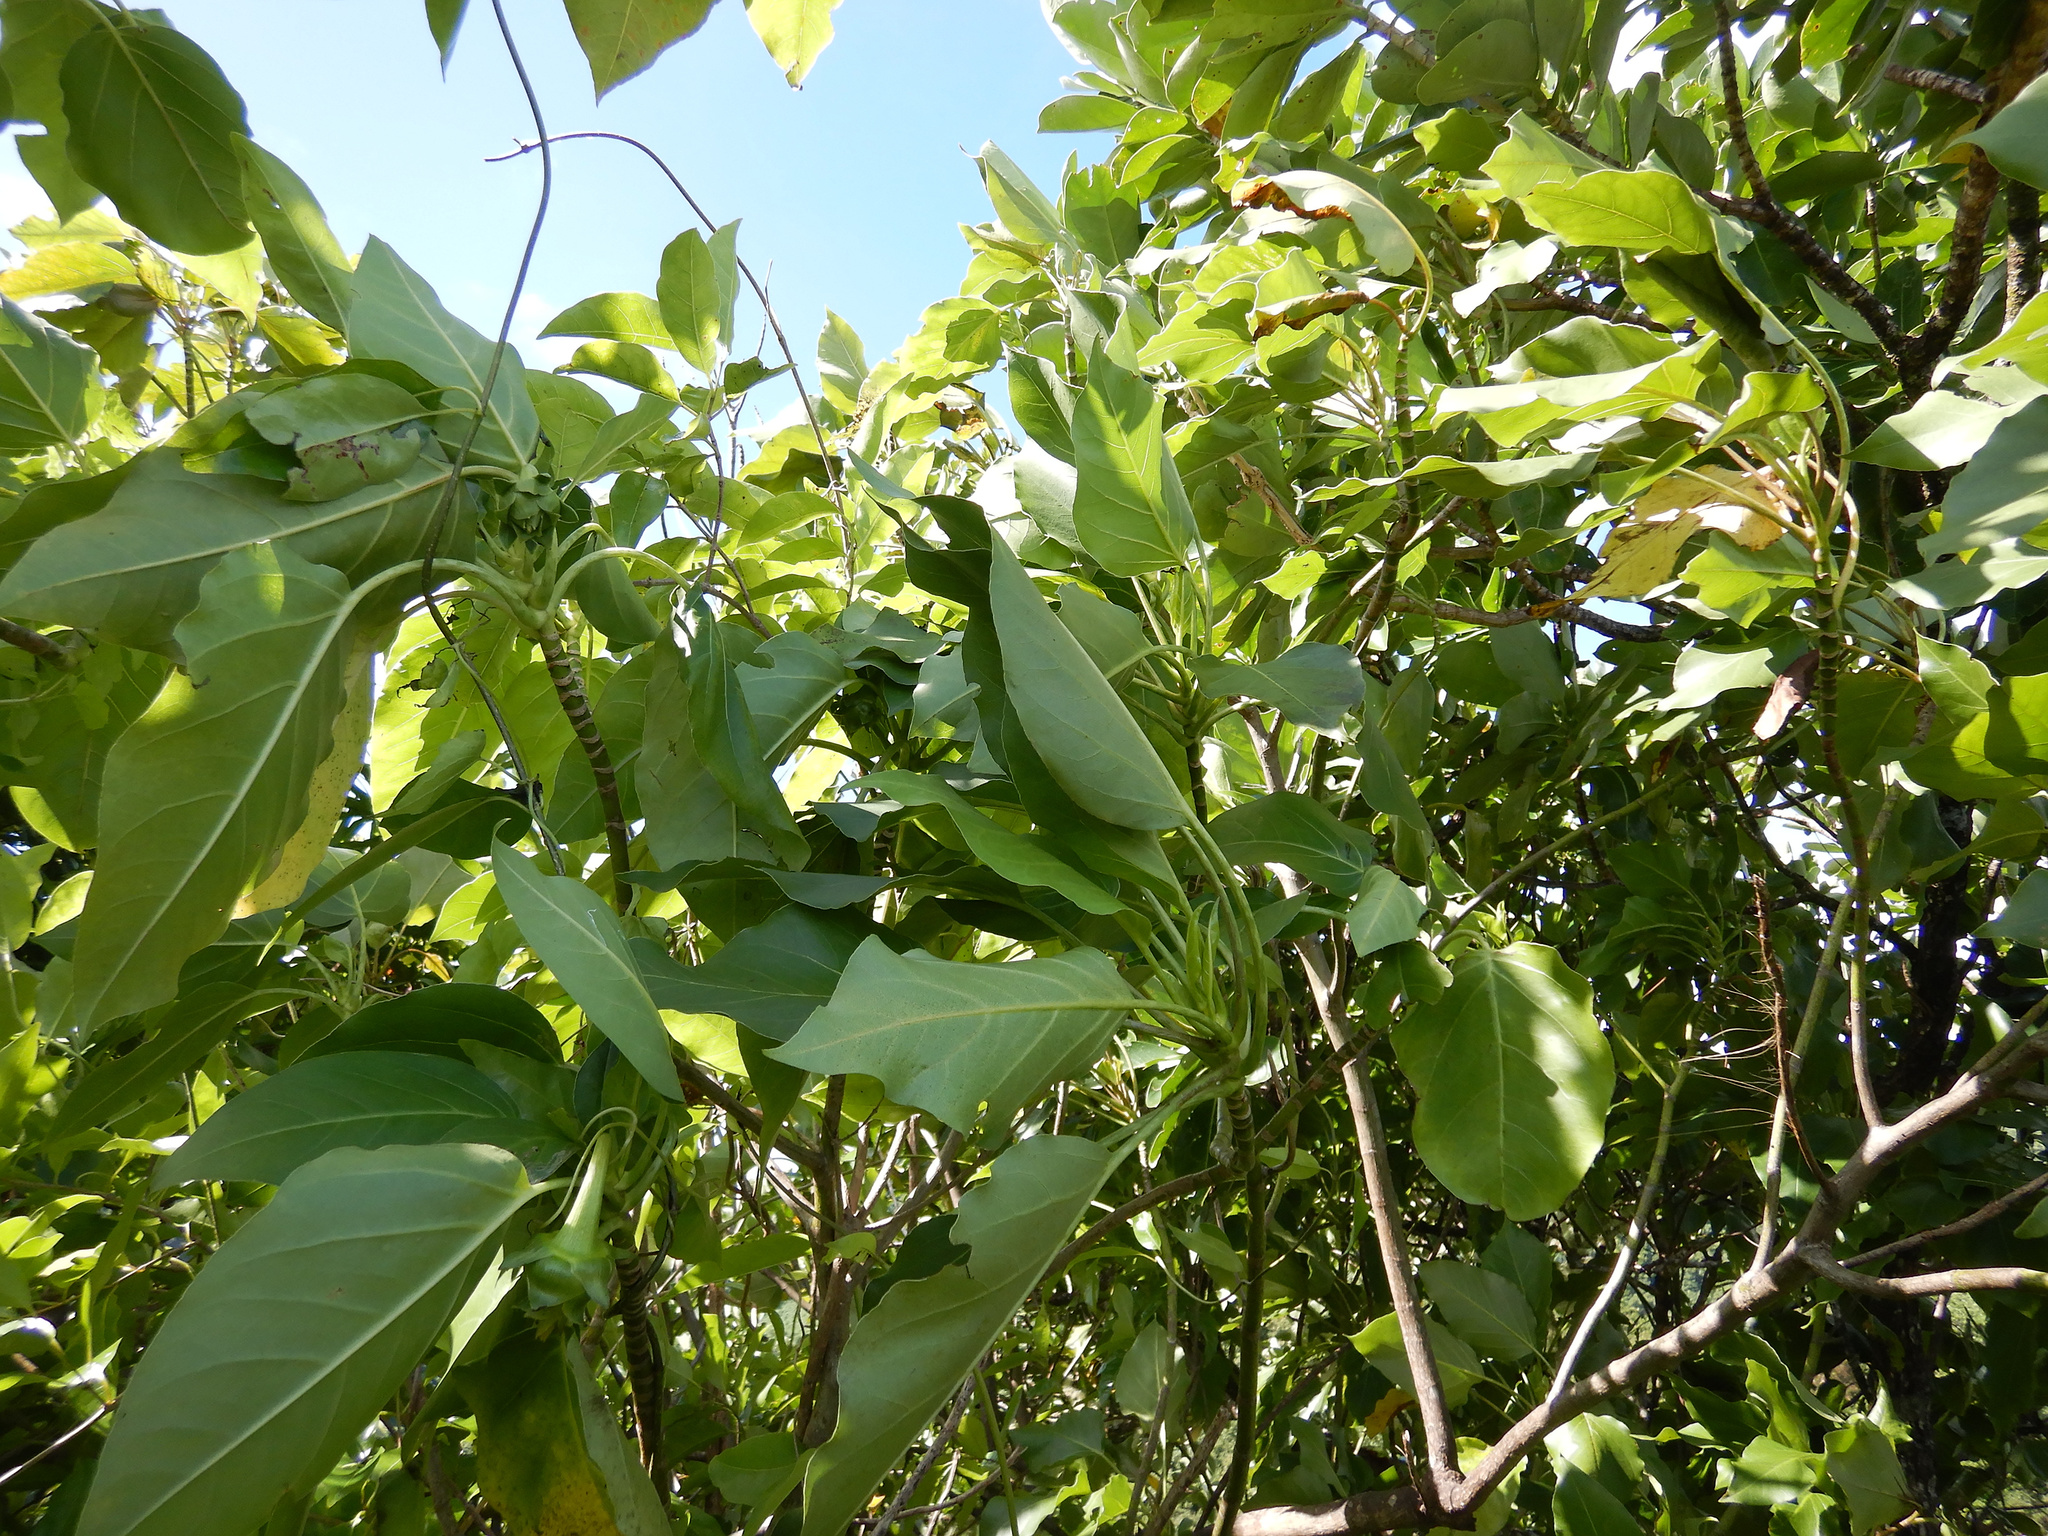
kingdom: Plantae
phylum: Tracheophyta
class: Magnoliopsida
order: Asterales
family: Asteraceae
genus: Fitchia
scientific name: Fitchia speciosa
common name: Burr daisytree
